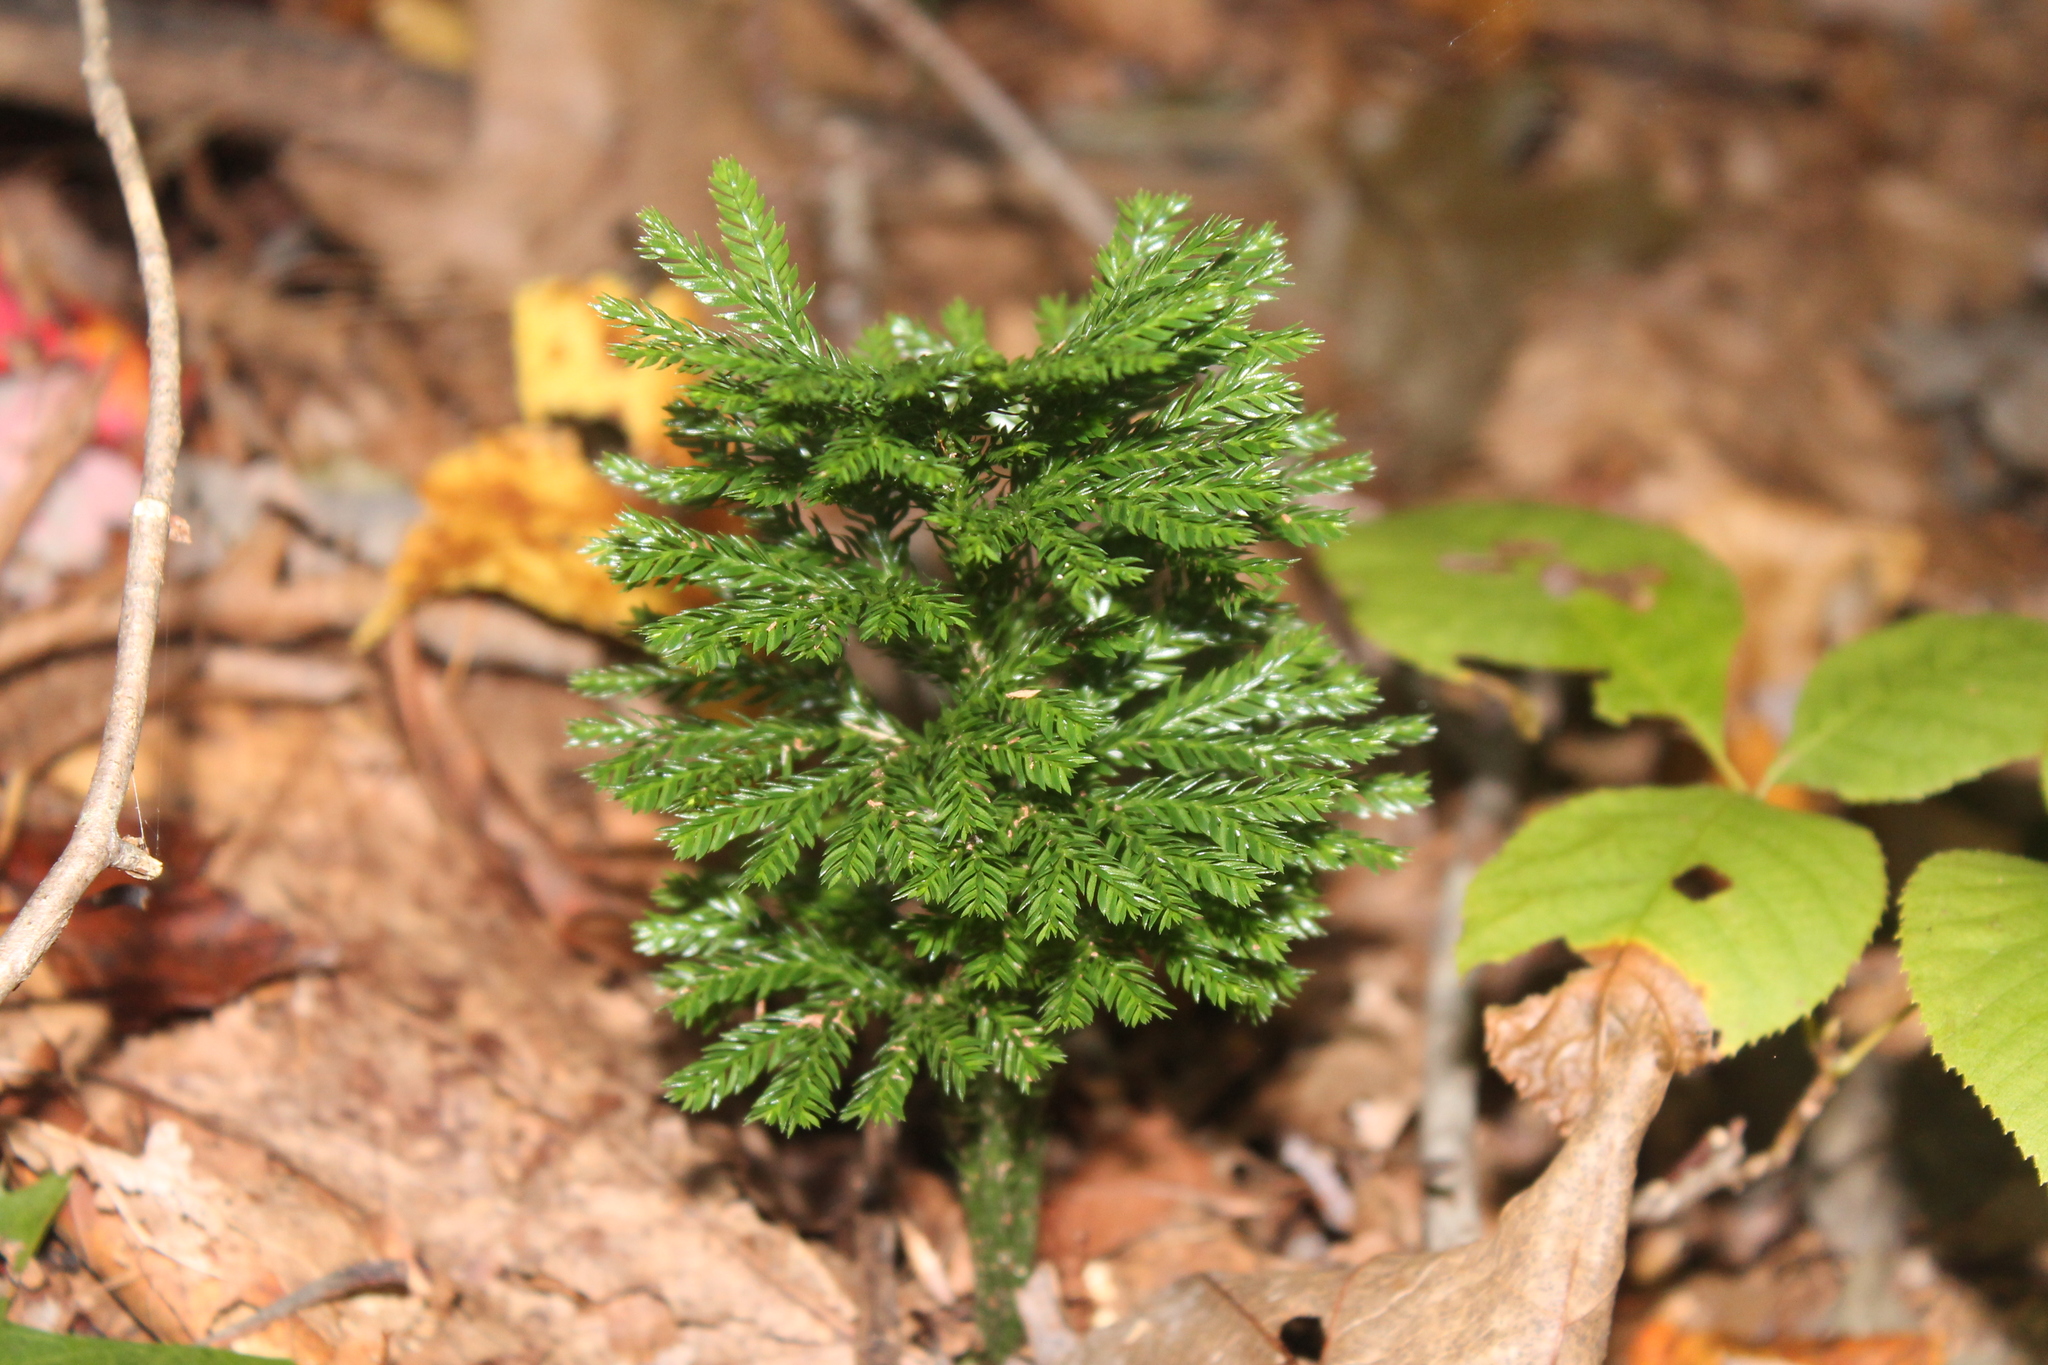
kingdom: Plantae
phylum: Tracheophyta
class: Lycopodiopsida
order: Lycopodiales
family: Lycopodiaceae
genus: Dendrolycopodium
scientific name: Dendrolycopodium obscurum
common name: Common ground-pine
